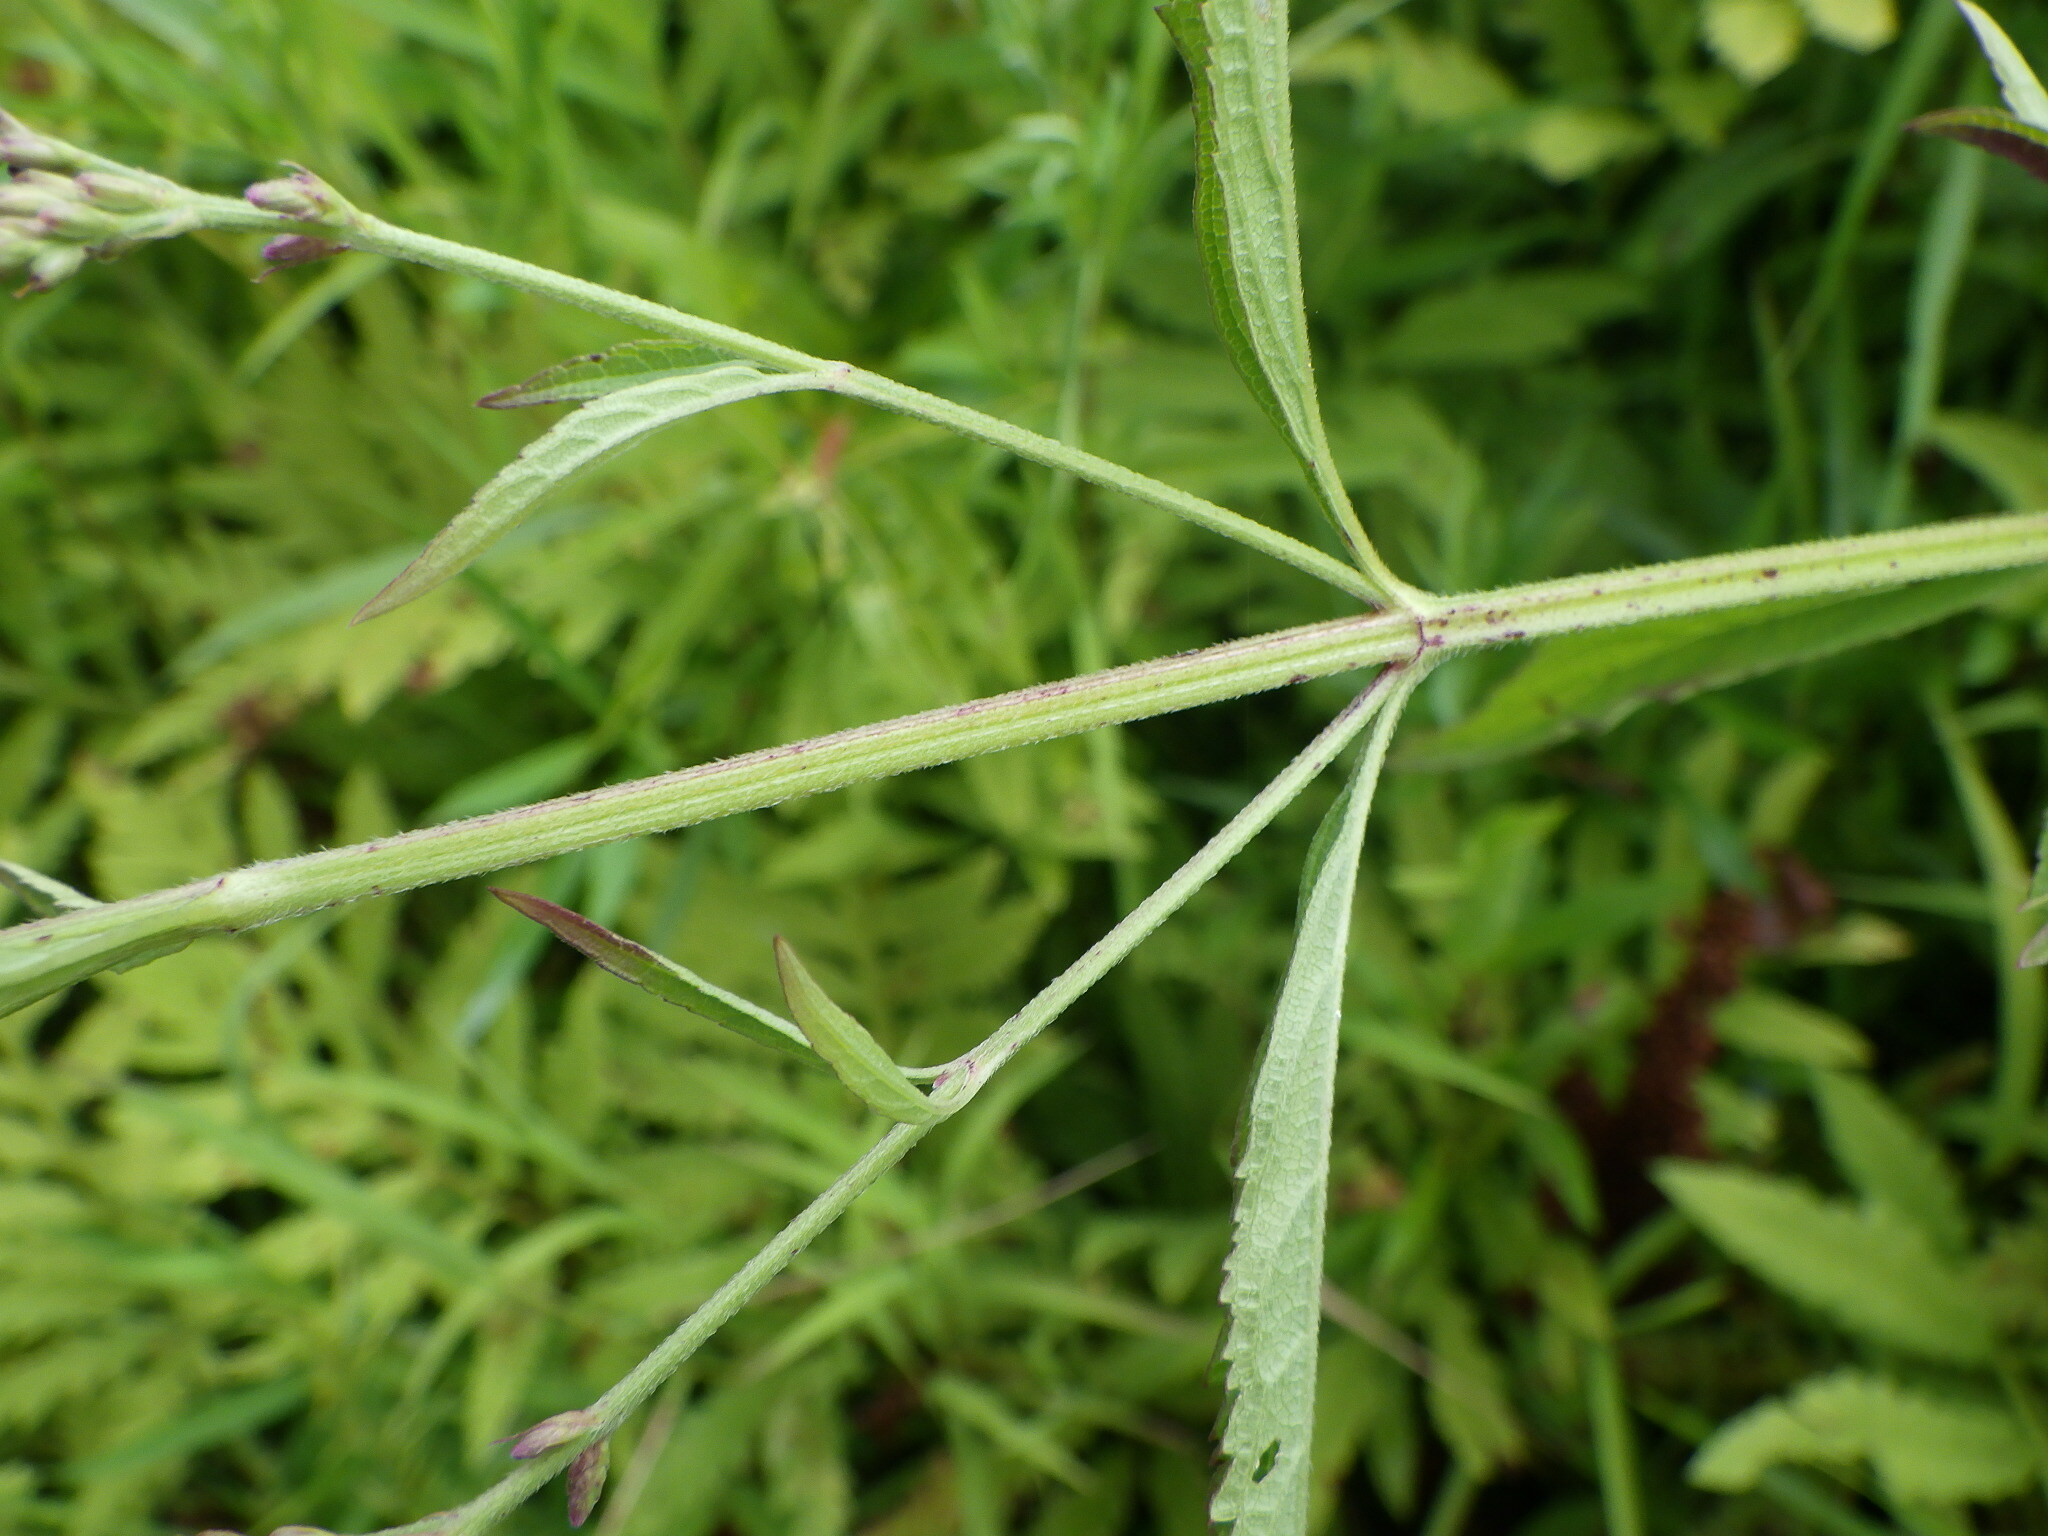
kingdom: Plantae
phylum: Tracheophyta
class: Magnoliopsida
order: Lamiales
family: Verbenaceae
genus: Verbena
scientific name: Verbena hastata
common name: American blue vervain
